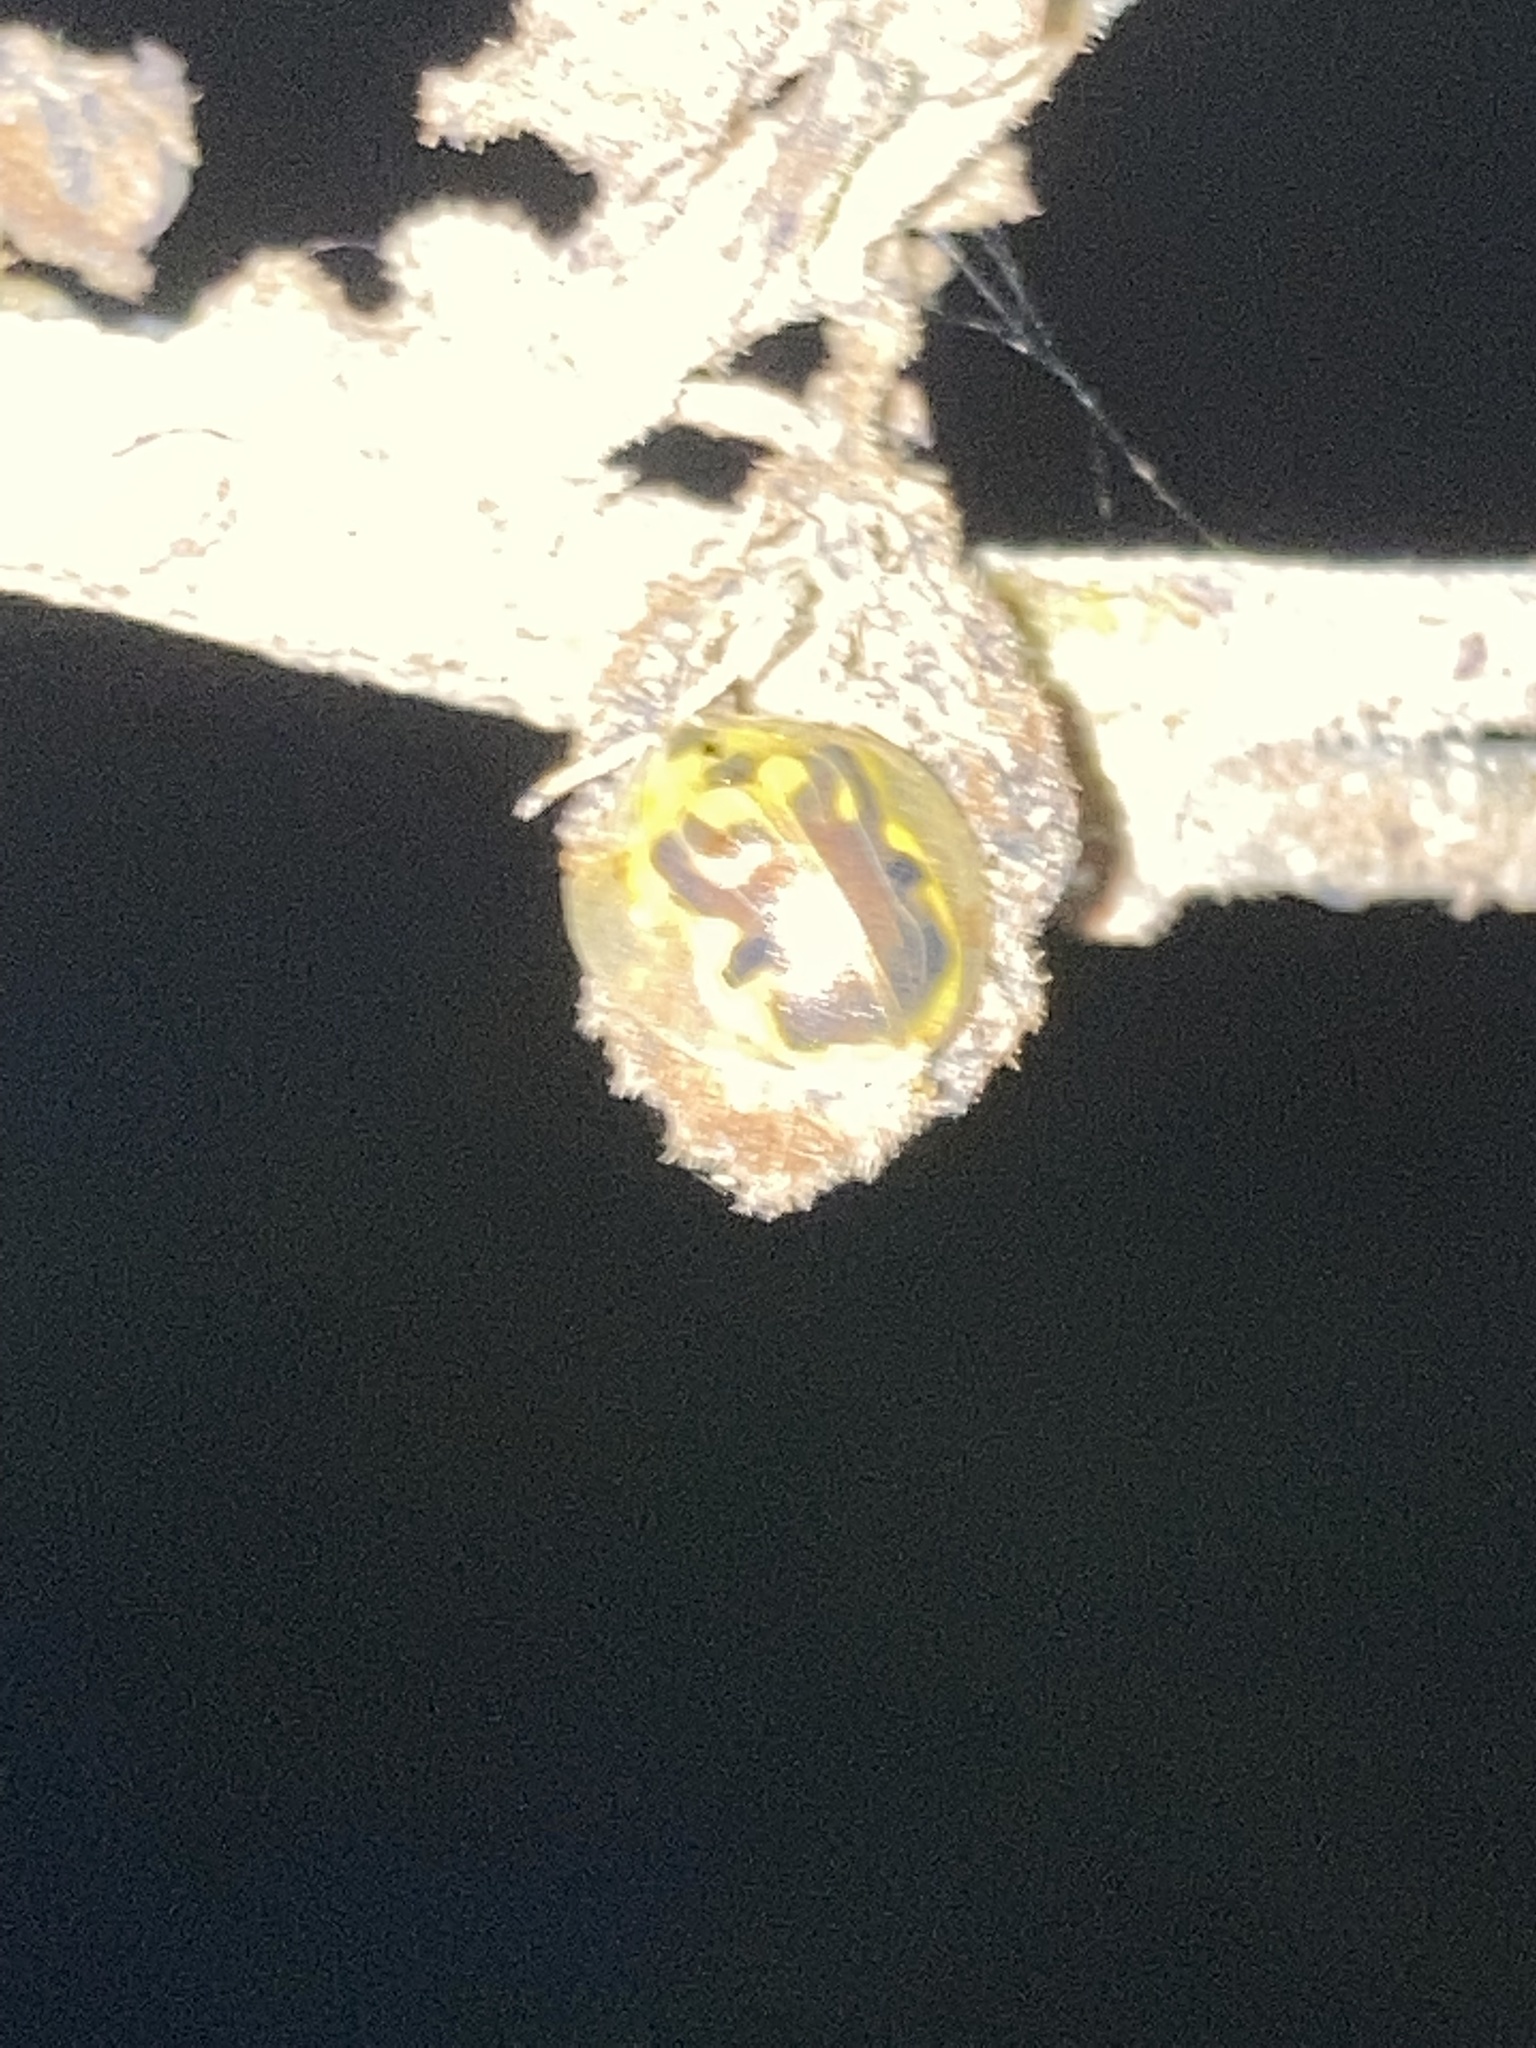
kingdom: Animalia
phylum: Arthropoda
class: Insecta
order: Coleoptera
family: Chrysomelidae
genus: Eurypepla
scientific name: Eurypepla calochroma
